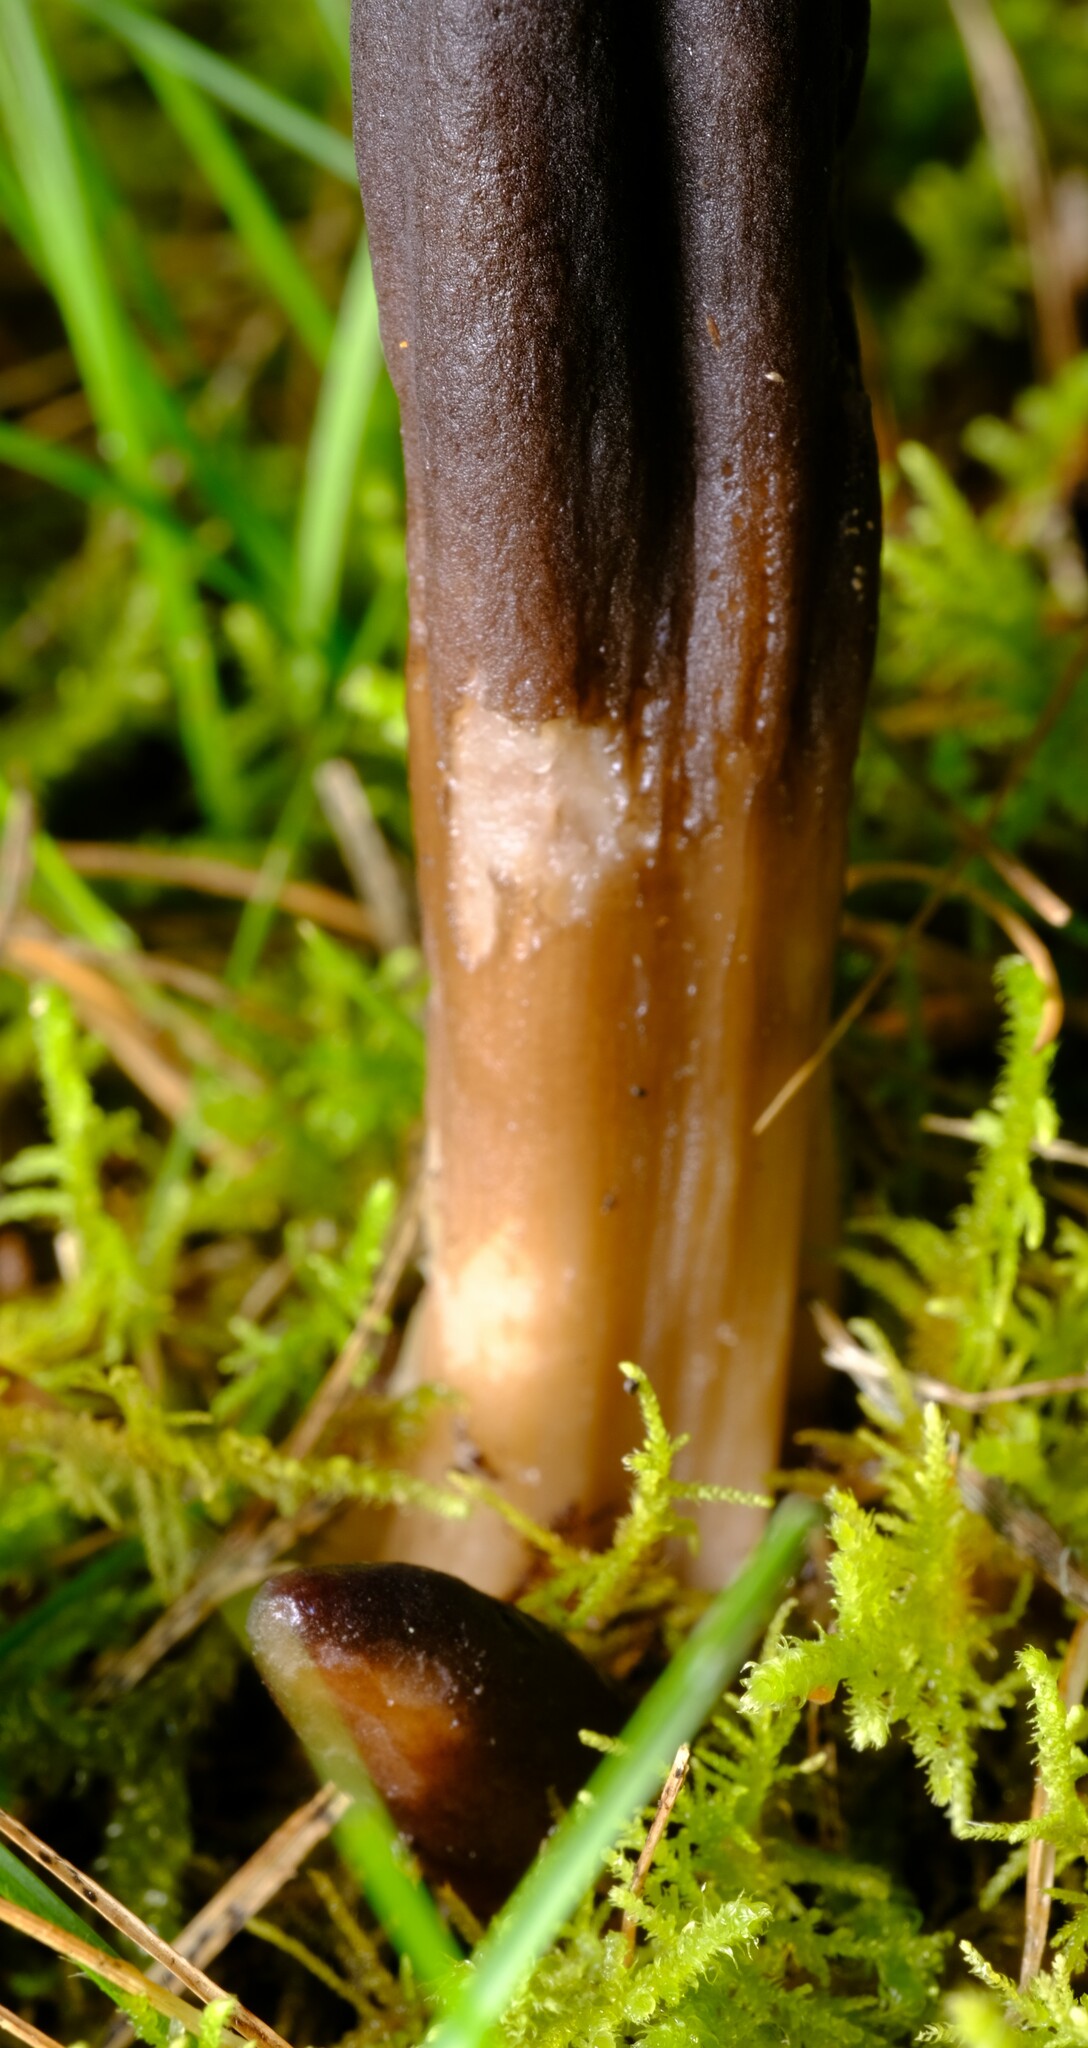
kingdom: Fungi
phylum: Ascomycota
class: Sordariomycetes
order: Hypocreales
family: Clavicipitaceae
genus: Drechmeria
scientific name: Drechmeria gunnii
